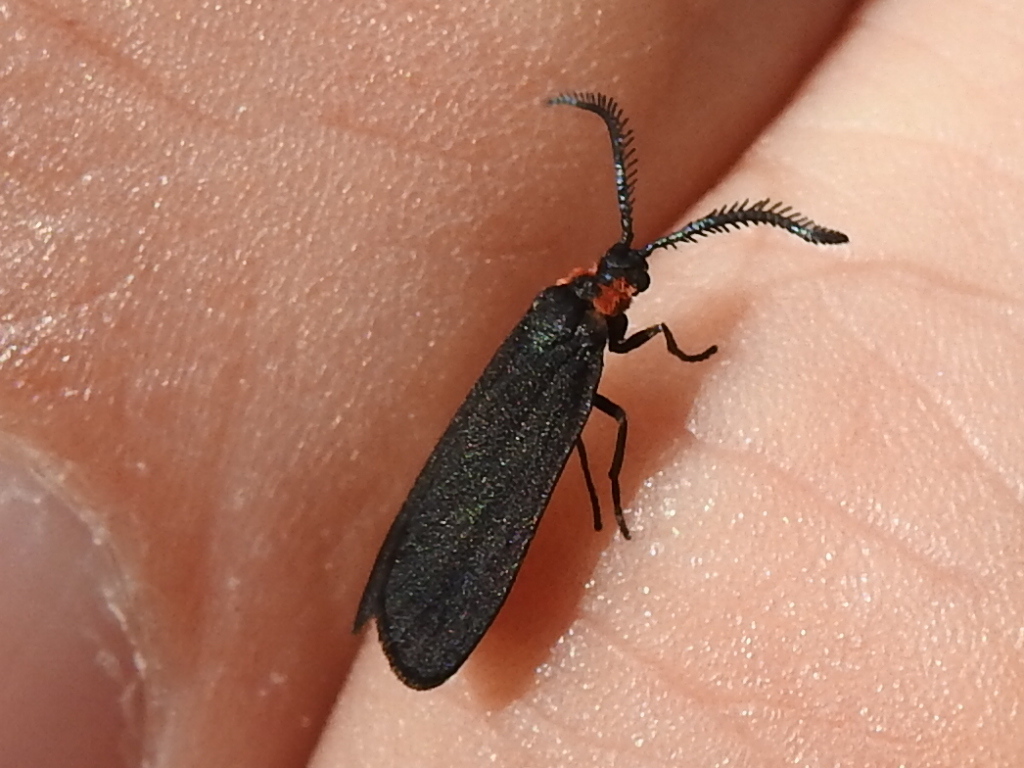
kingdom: Animalia
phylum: Arthropoda
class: Insecta
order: Lepidoptera
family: Zygaenidae
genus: Acoloithus
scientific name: Acoloithus falsarius
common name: Clemens' false skeletonizer
